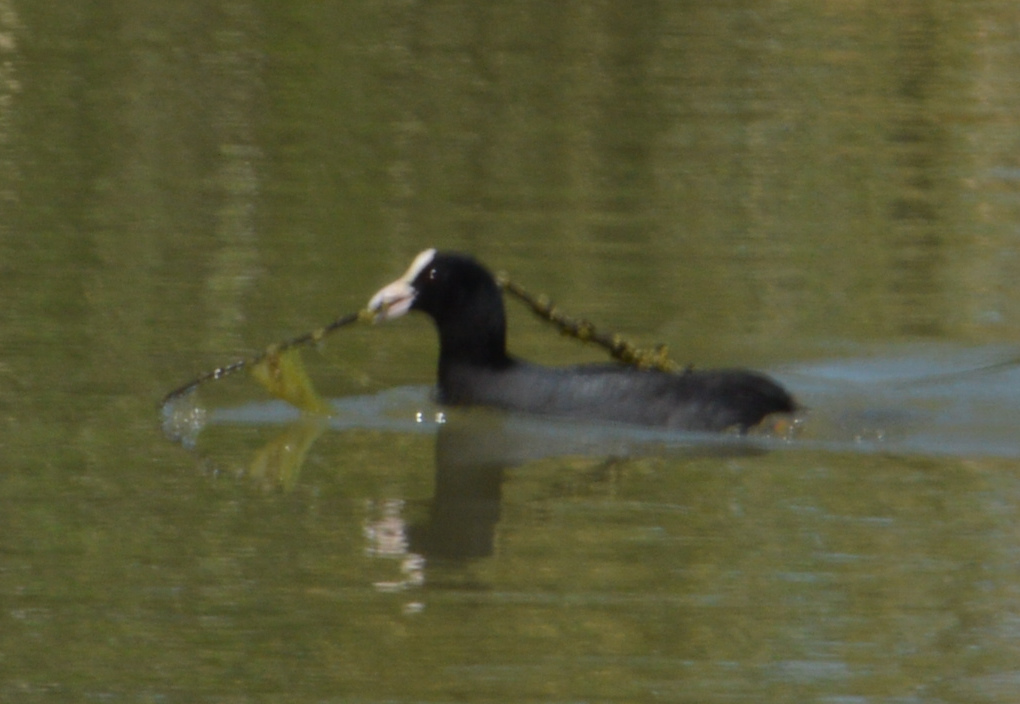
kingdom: Animalia
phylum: Chordata
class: Aves
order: Gruiformes
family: Rallidae
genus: Fulica
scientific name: Fulica atra
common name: Eurasian coot
